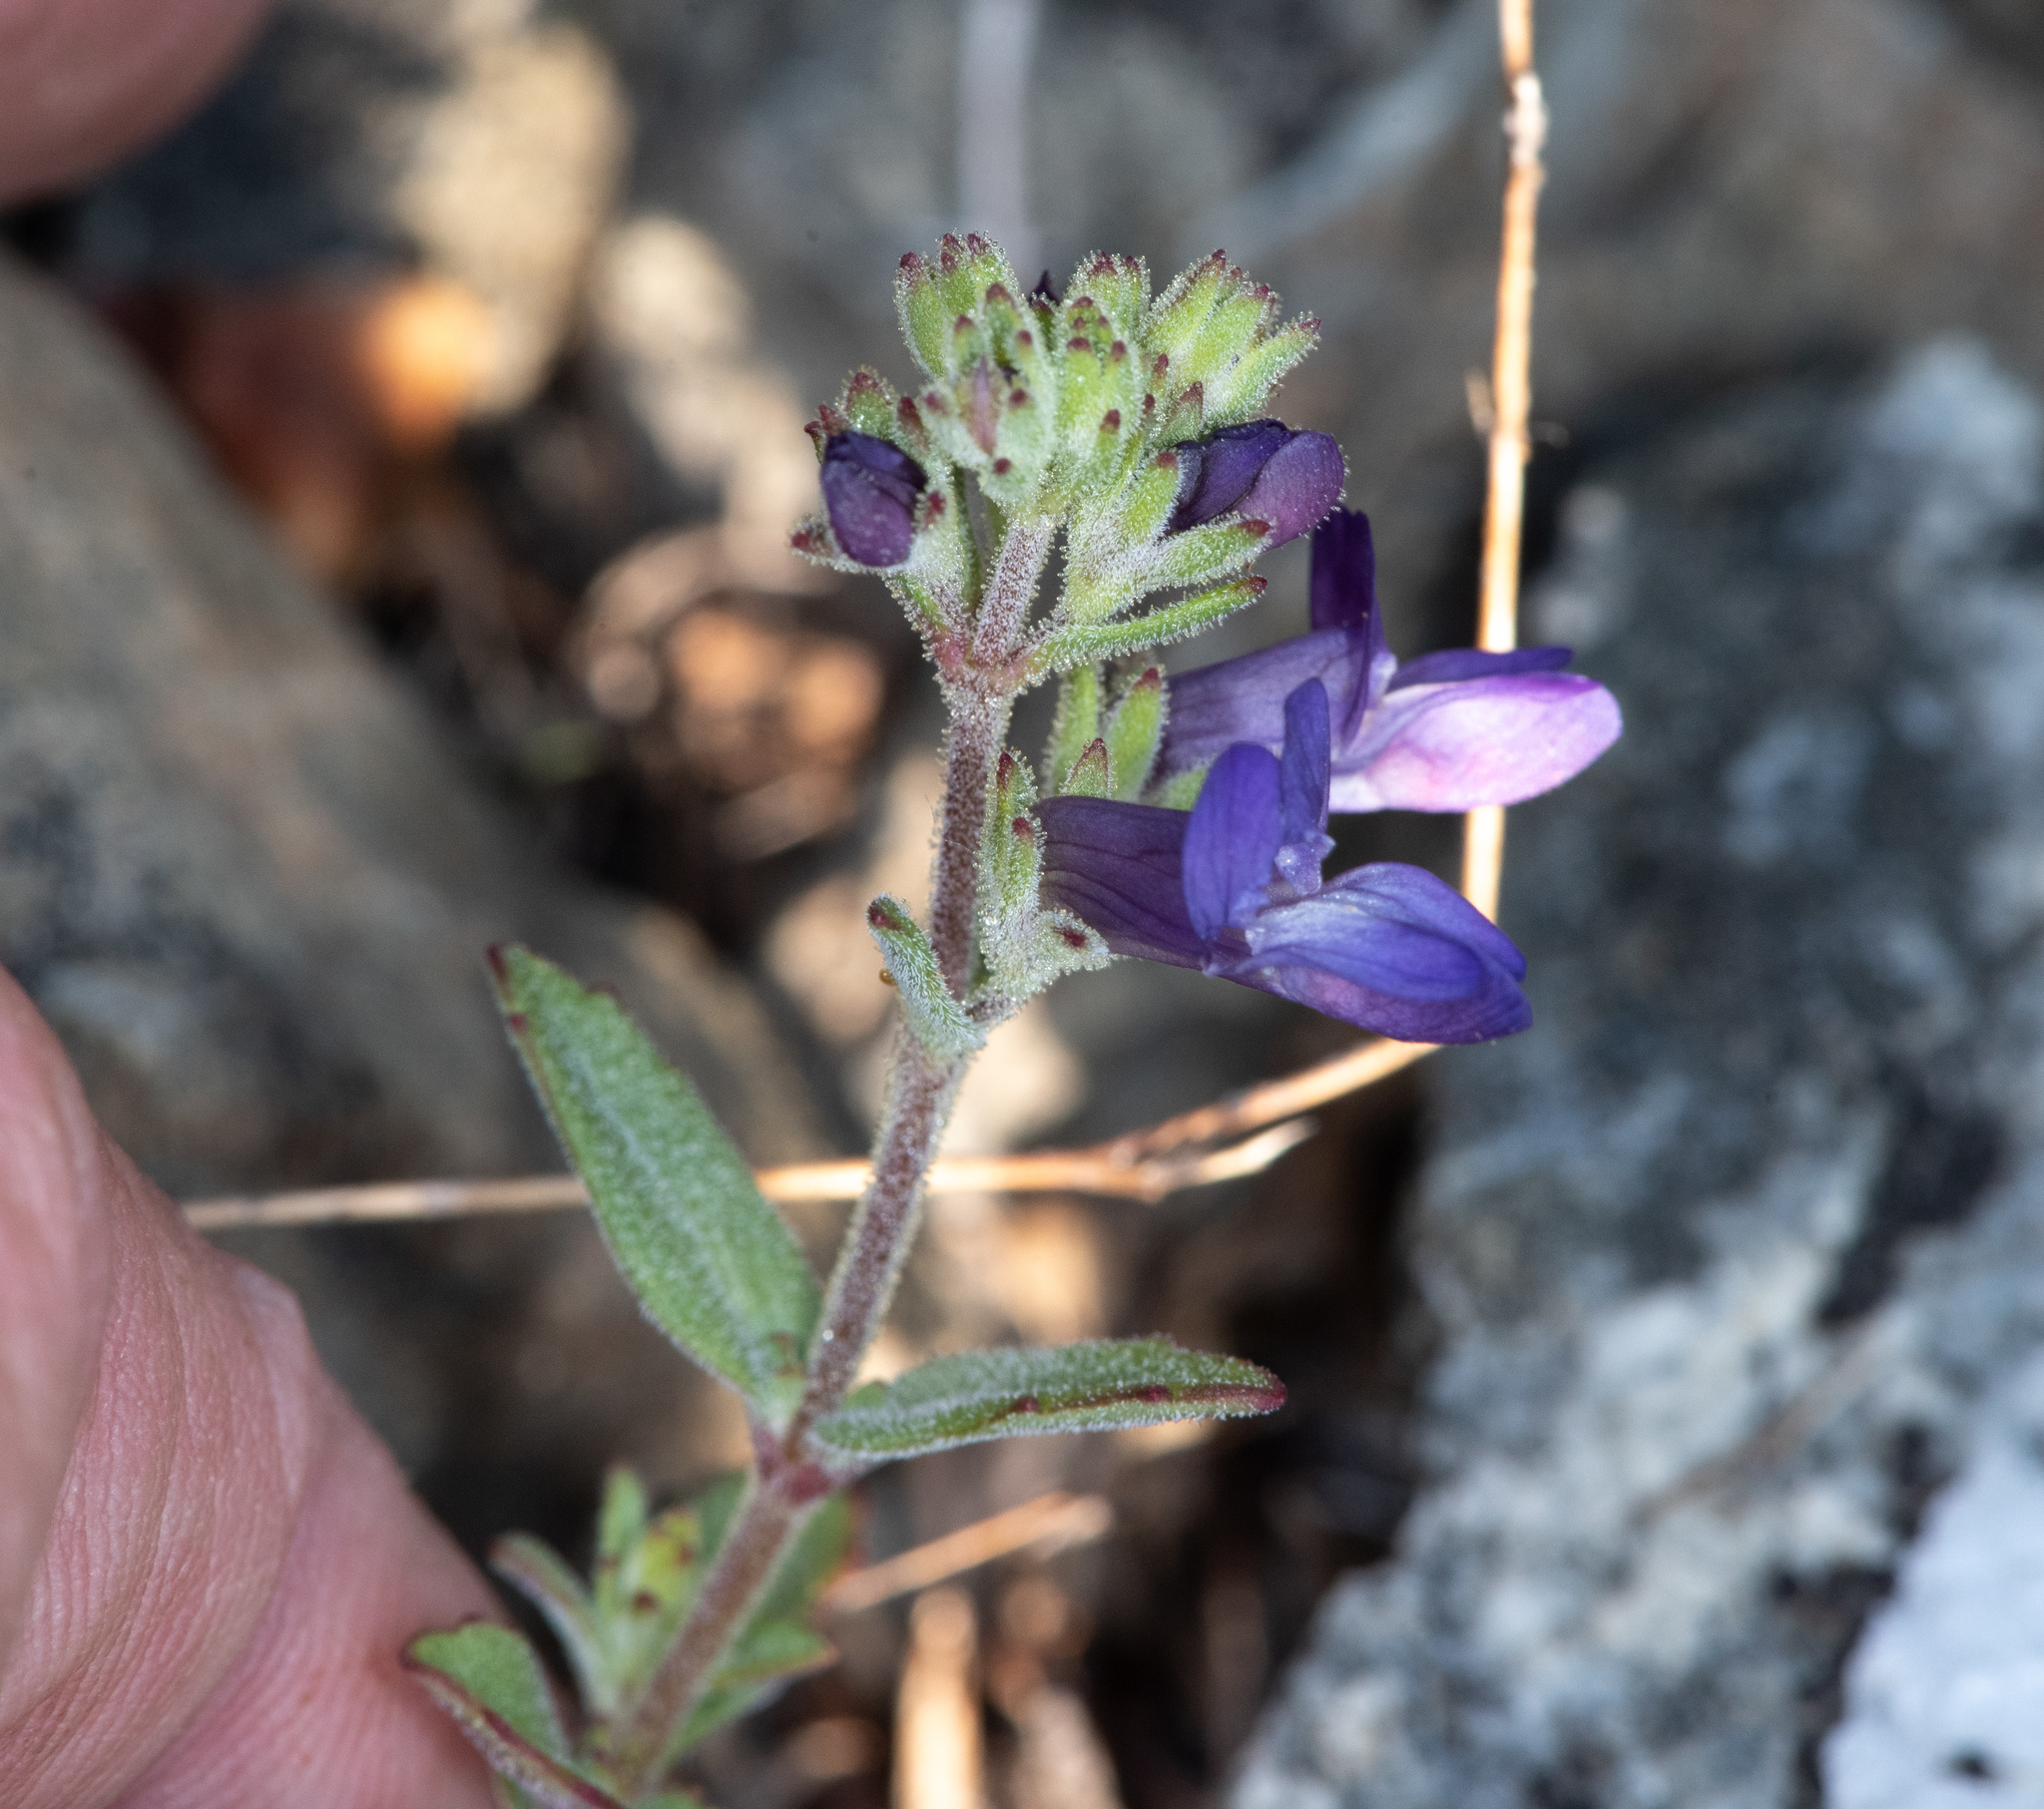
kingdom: Plantae
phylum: Tracheophyta
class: Magnoliopsida
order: Lamiales
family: Plantaginaceae
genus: Collinsia
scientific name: Collinsia greenei
